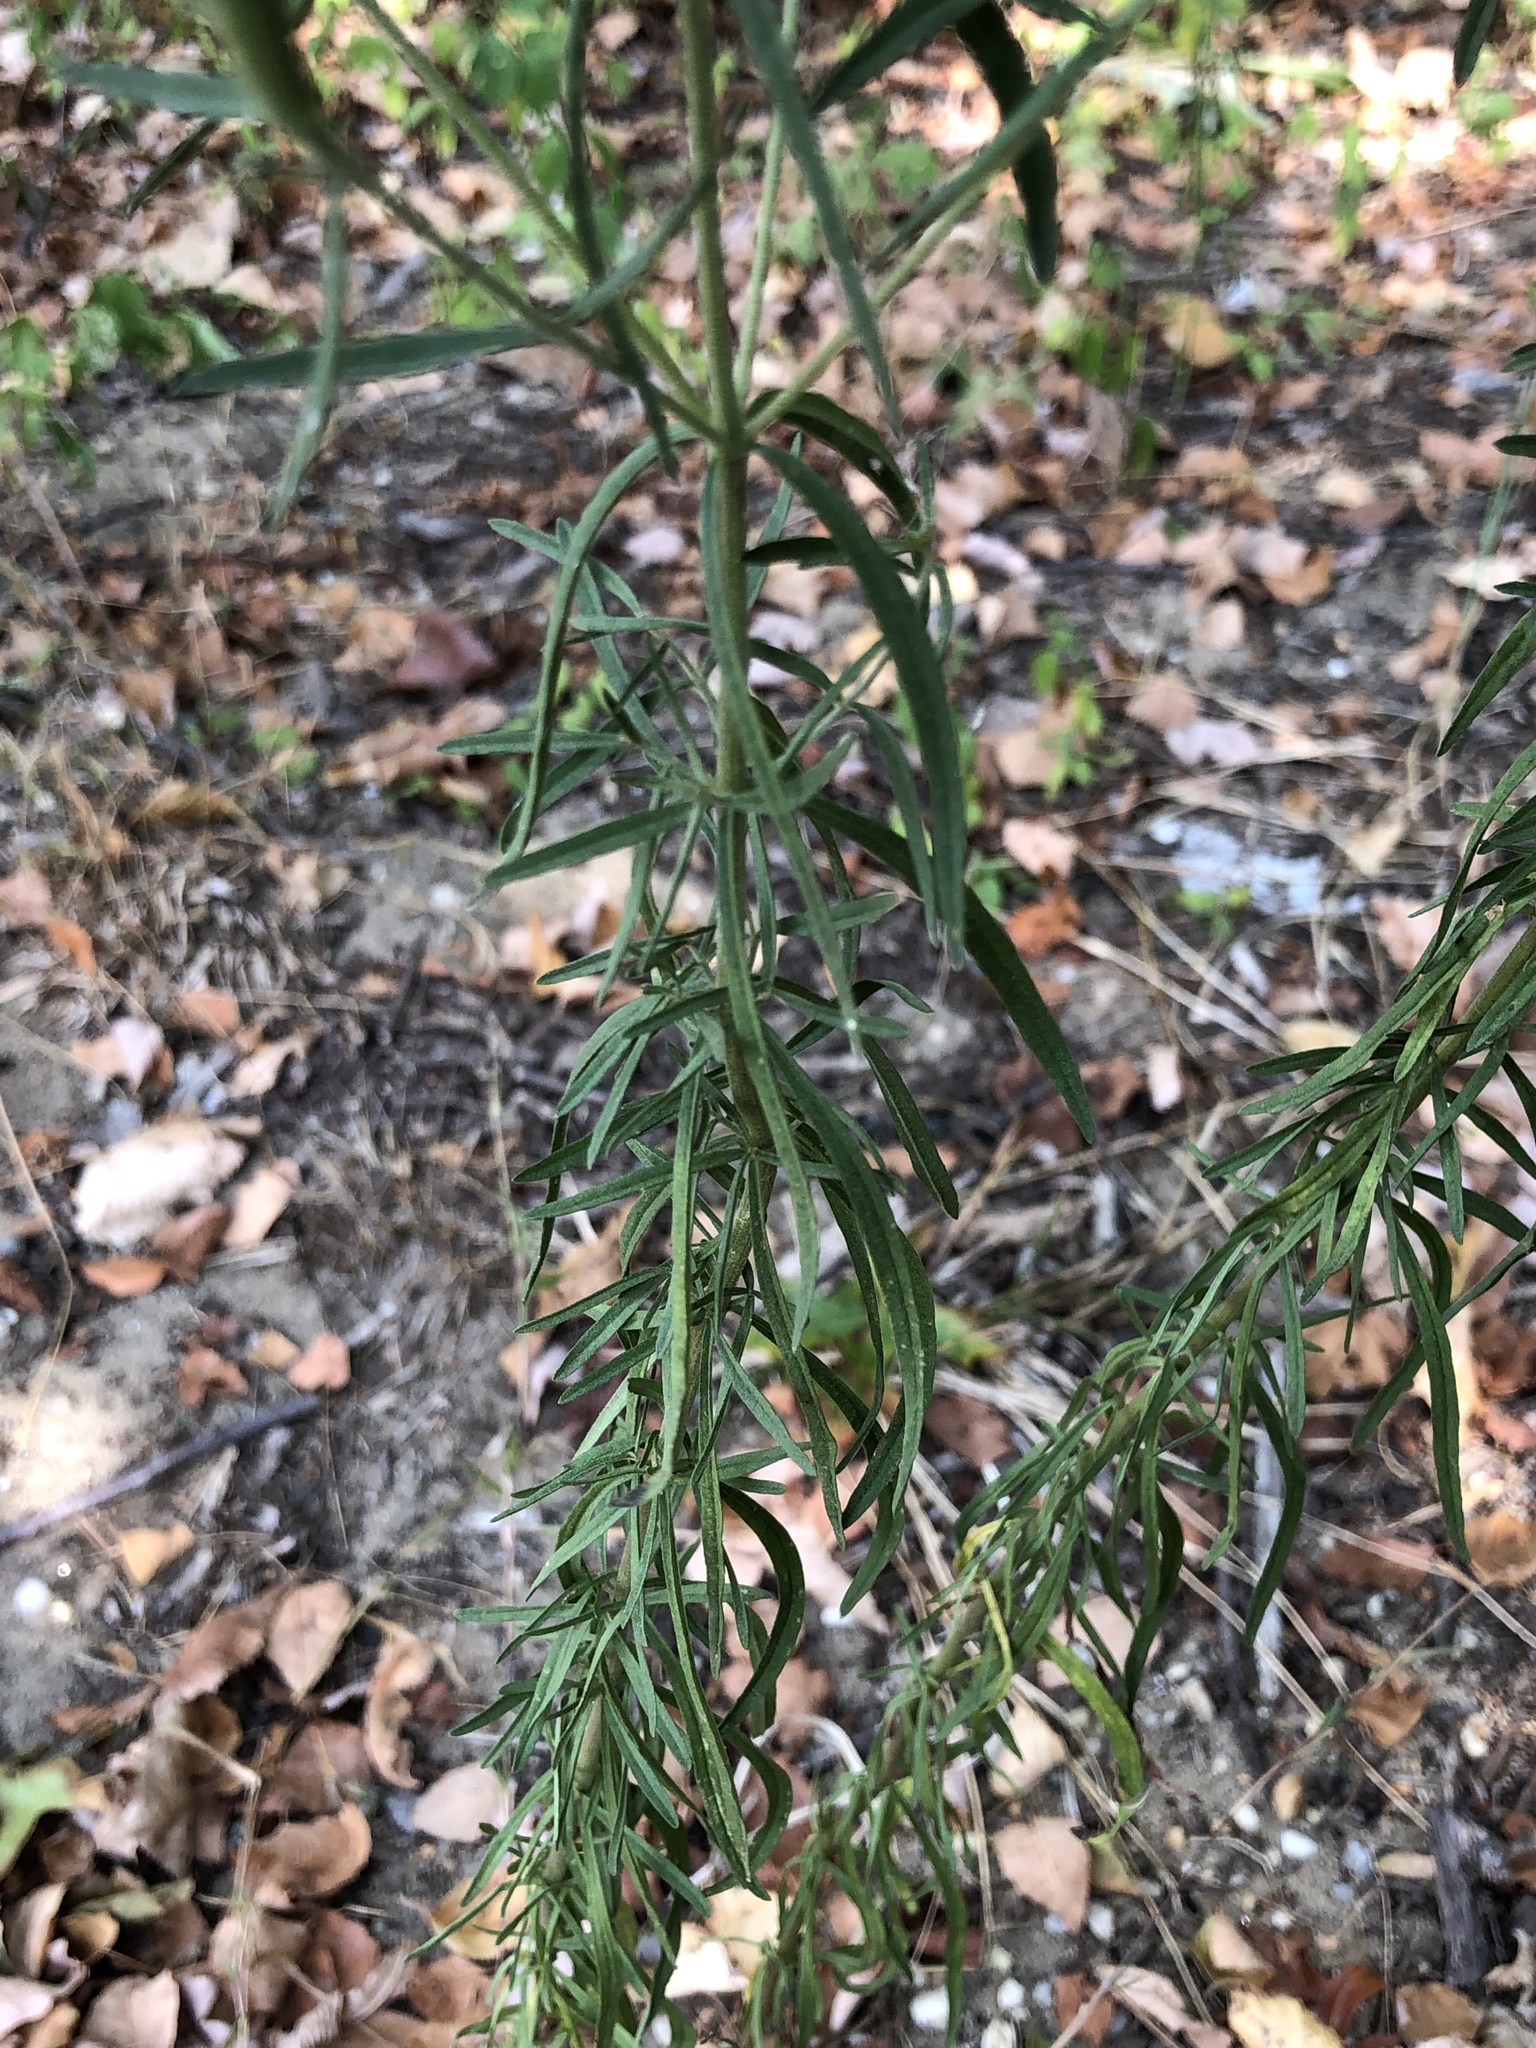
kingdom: Plantae
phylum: Tracheophyta
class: Magnoliopsida
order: Asterales
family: Asteraceae
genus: Eupatorium
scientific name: Eupatorium hyssopifolium
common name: Hyssop-leaf thoroughwort
